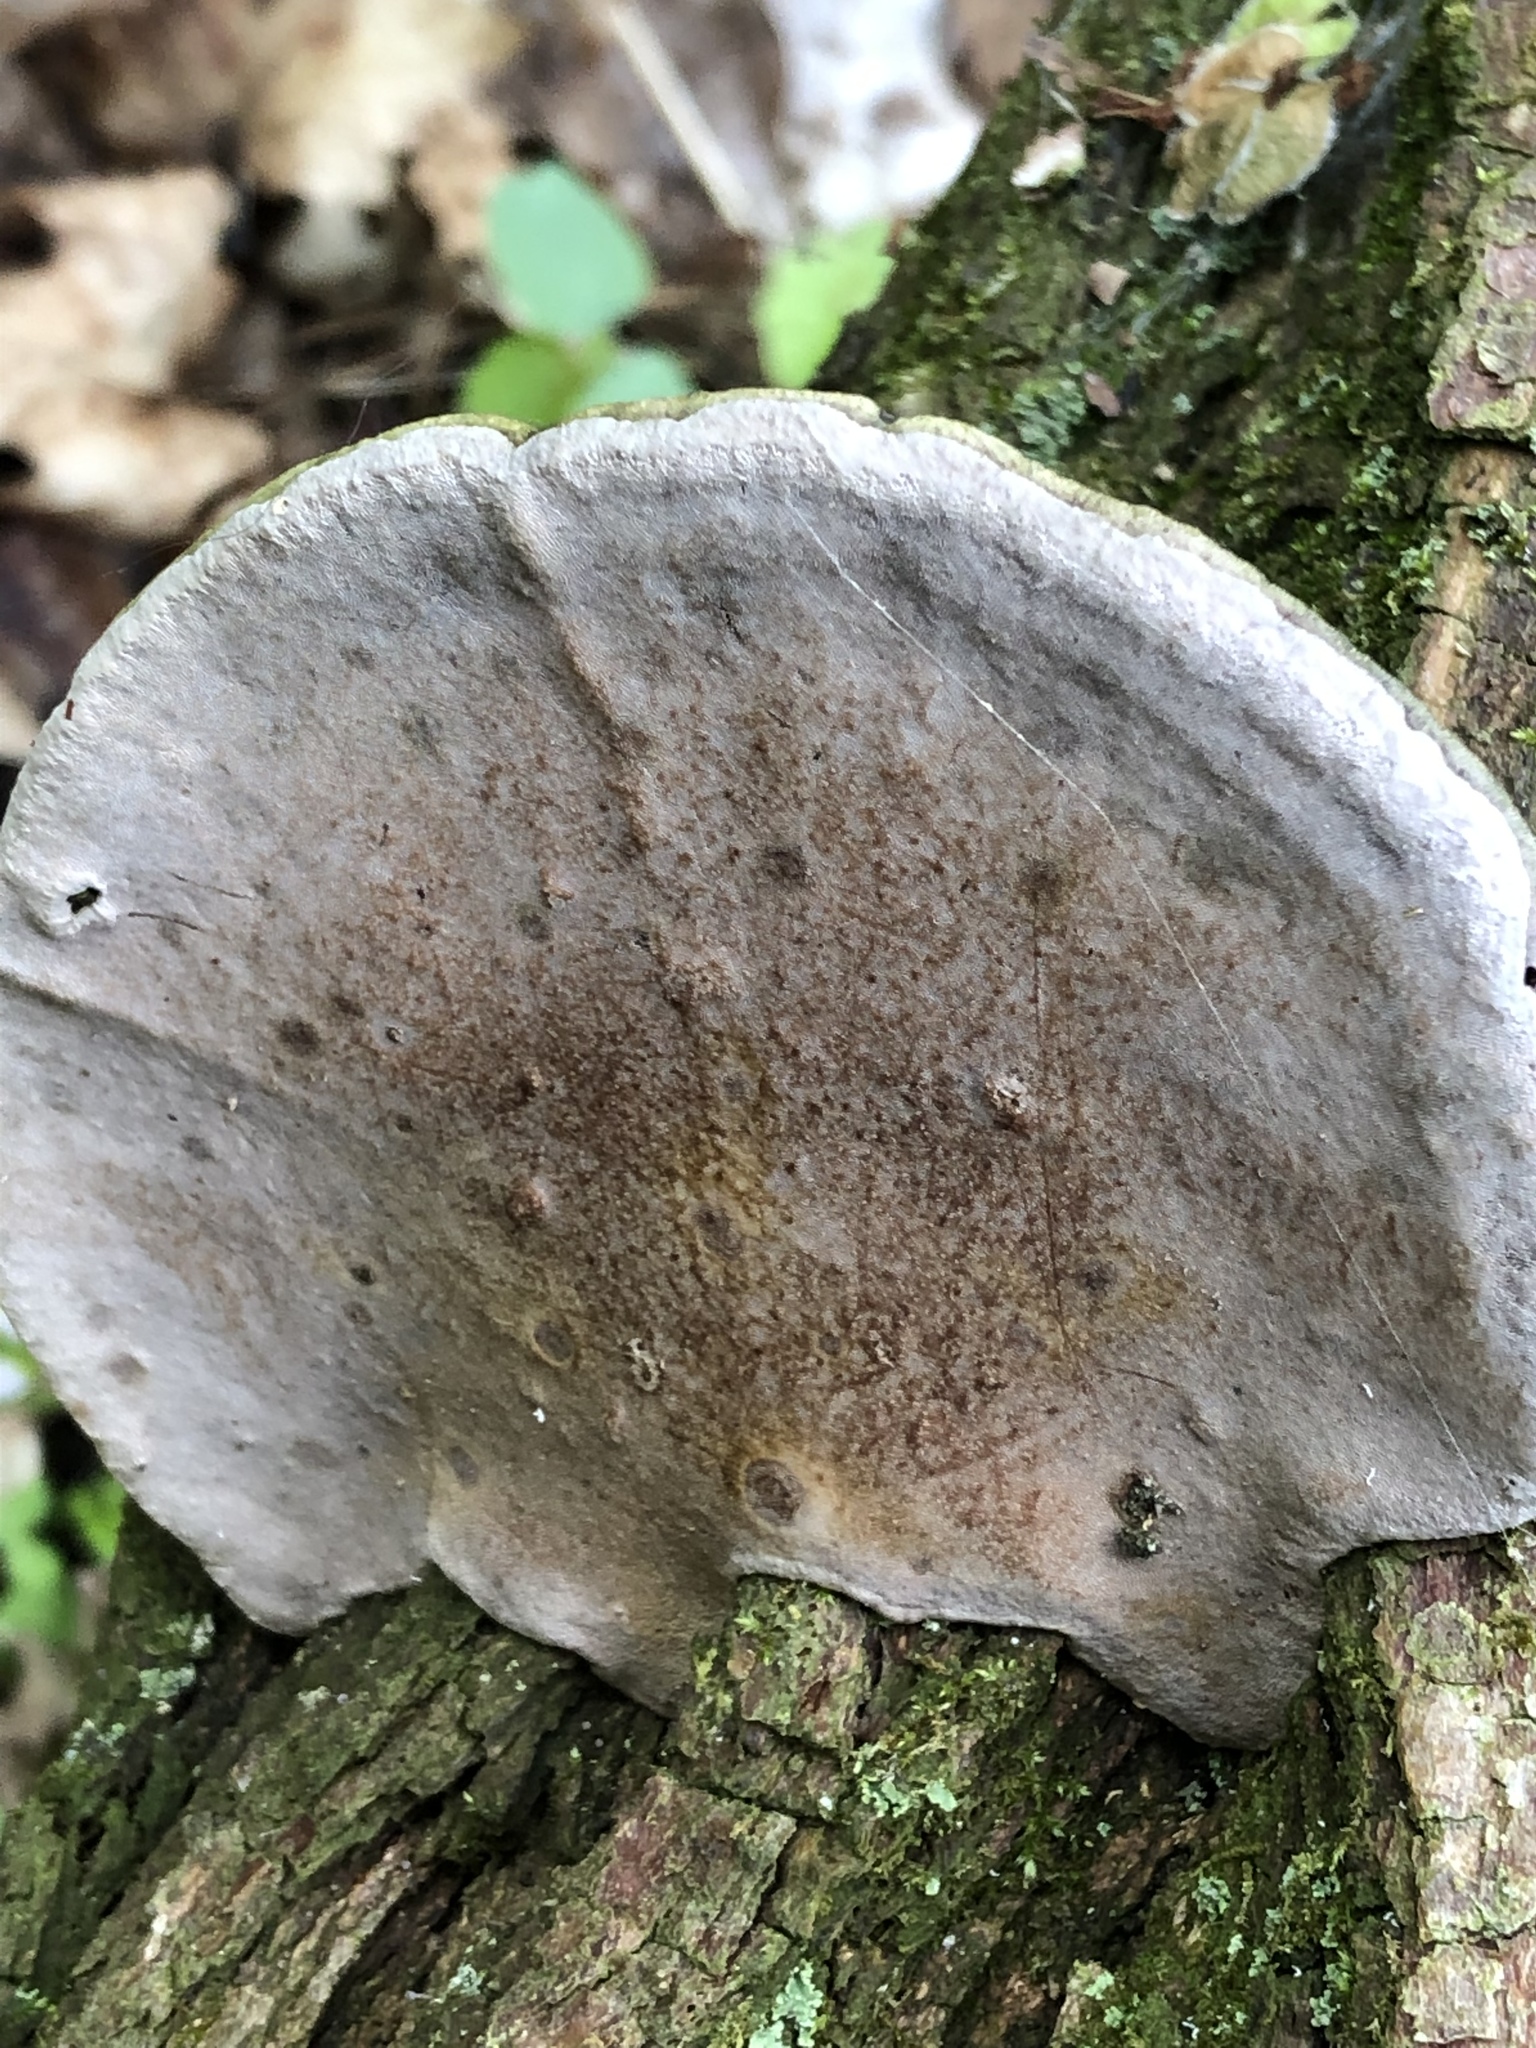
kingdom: Fungi
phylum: Basidiomycota
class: Agaricomycetes
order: Hymenochaetales
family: Hymenochaetaceae
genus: Phellinus
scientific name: Phellinus robiniae
